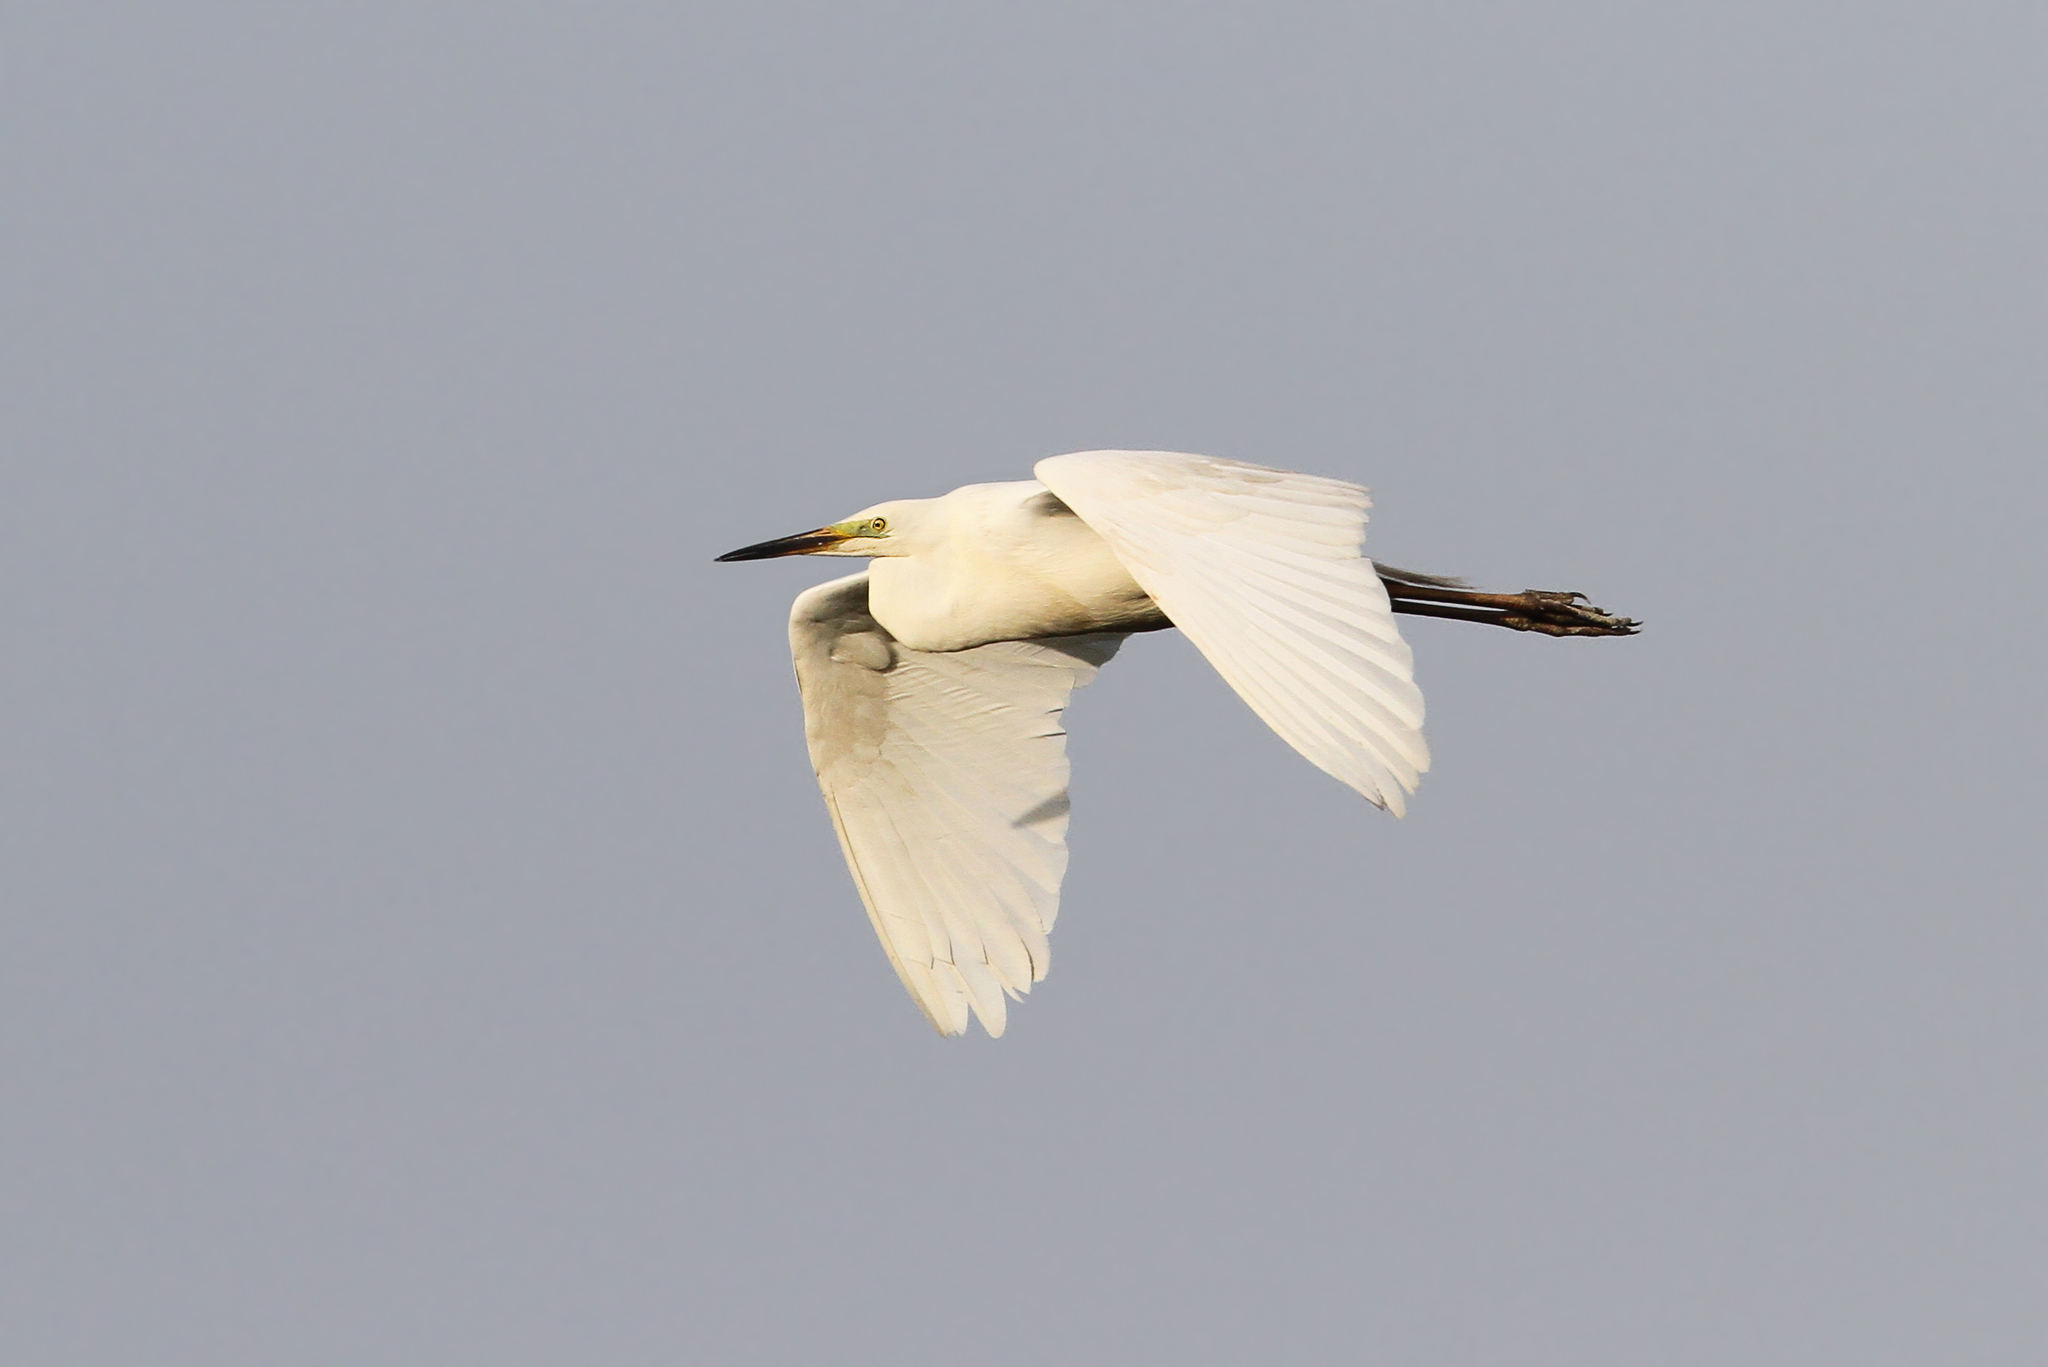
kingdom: Animalia
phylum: Chordata
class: Aves
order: Pelecaniformes
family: Ardeidae
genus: Ardea
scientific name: Ardea alba
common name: Great egret
